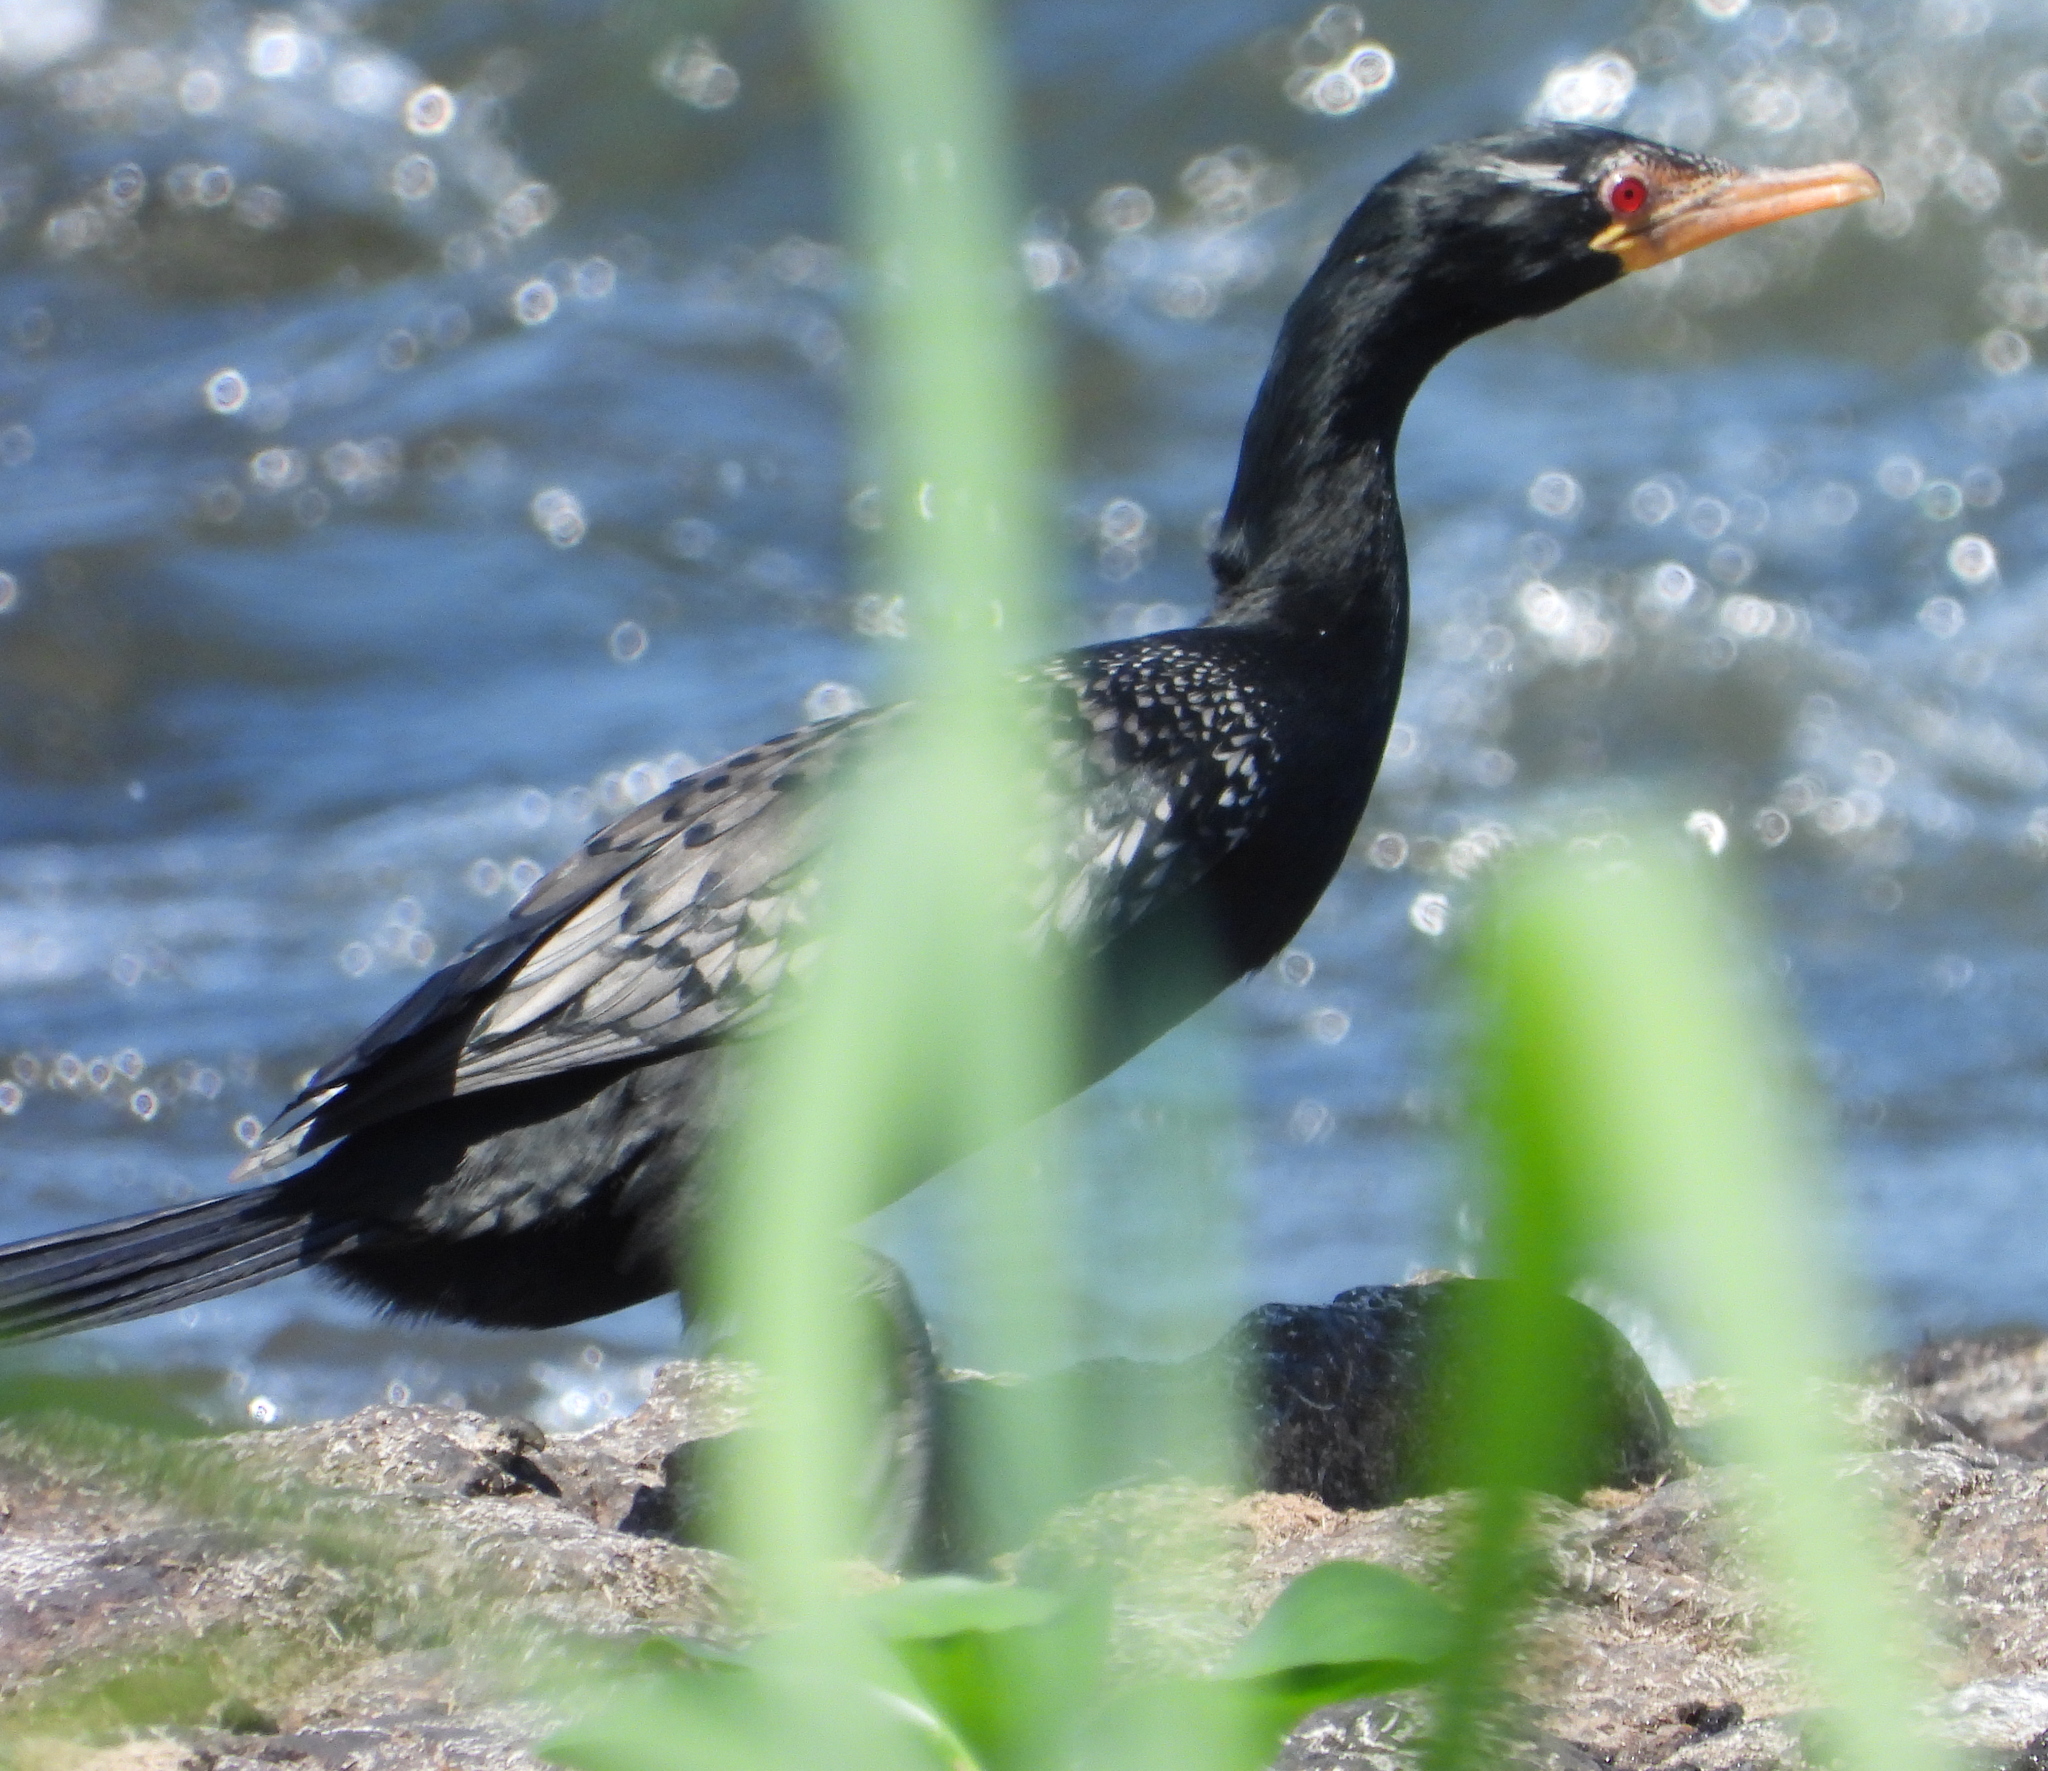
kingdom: Animalia
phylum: Chordata
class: Aves
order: Suliformes
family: Phalacrocoracidae
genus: Microcarbo
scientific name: Microcarbo africanus
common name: Long-tailed cormorant
